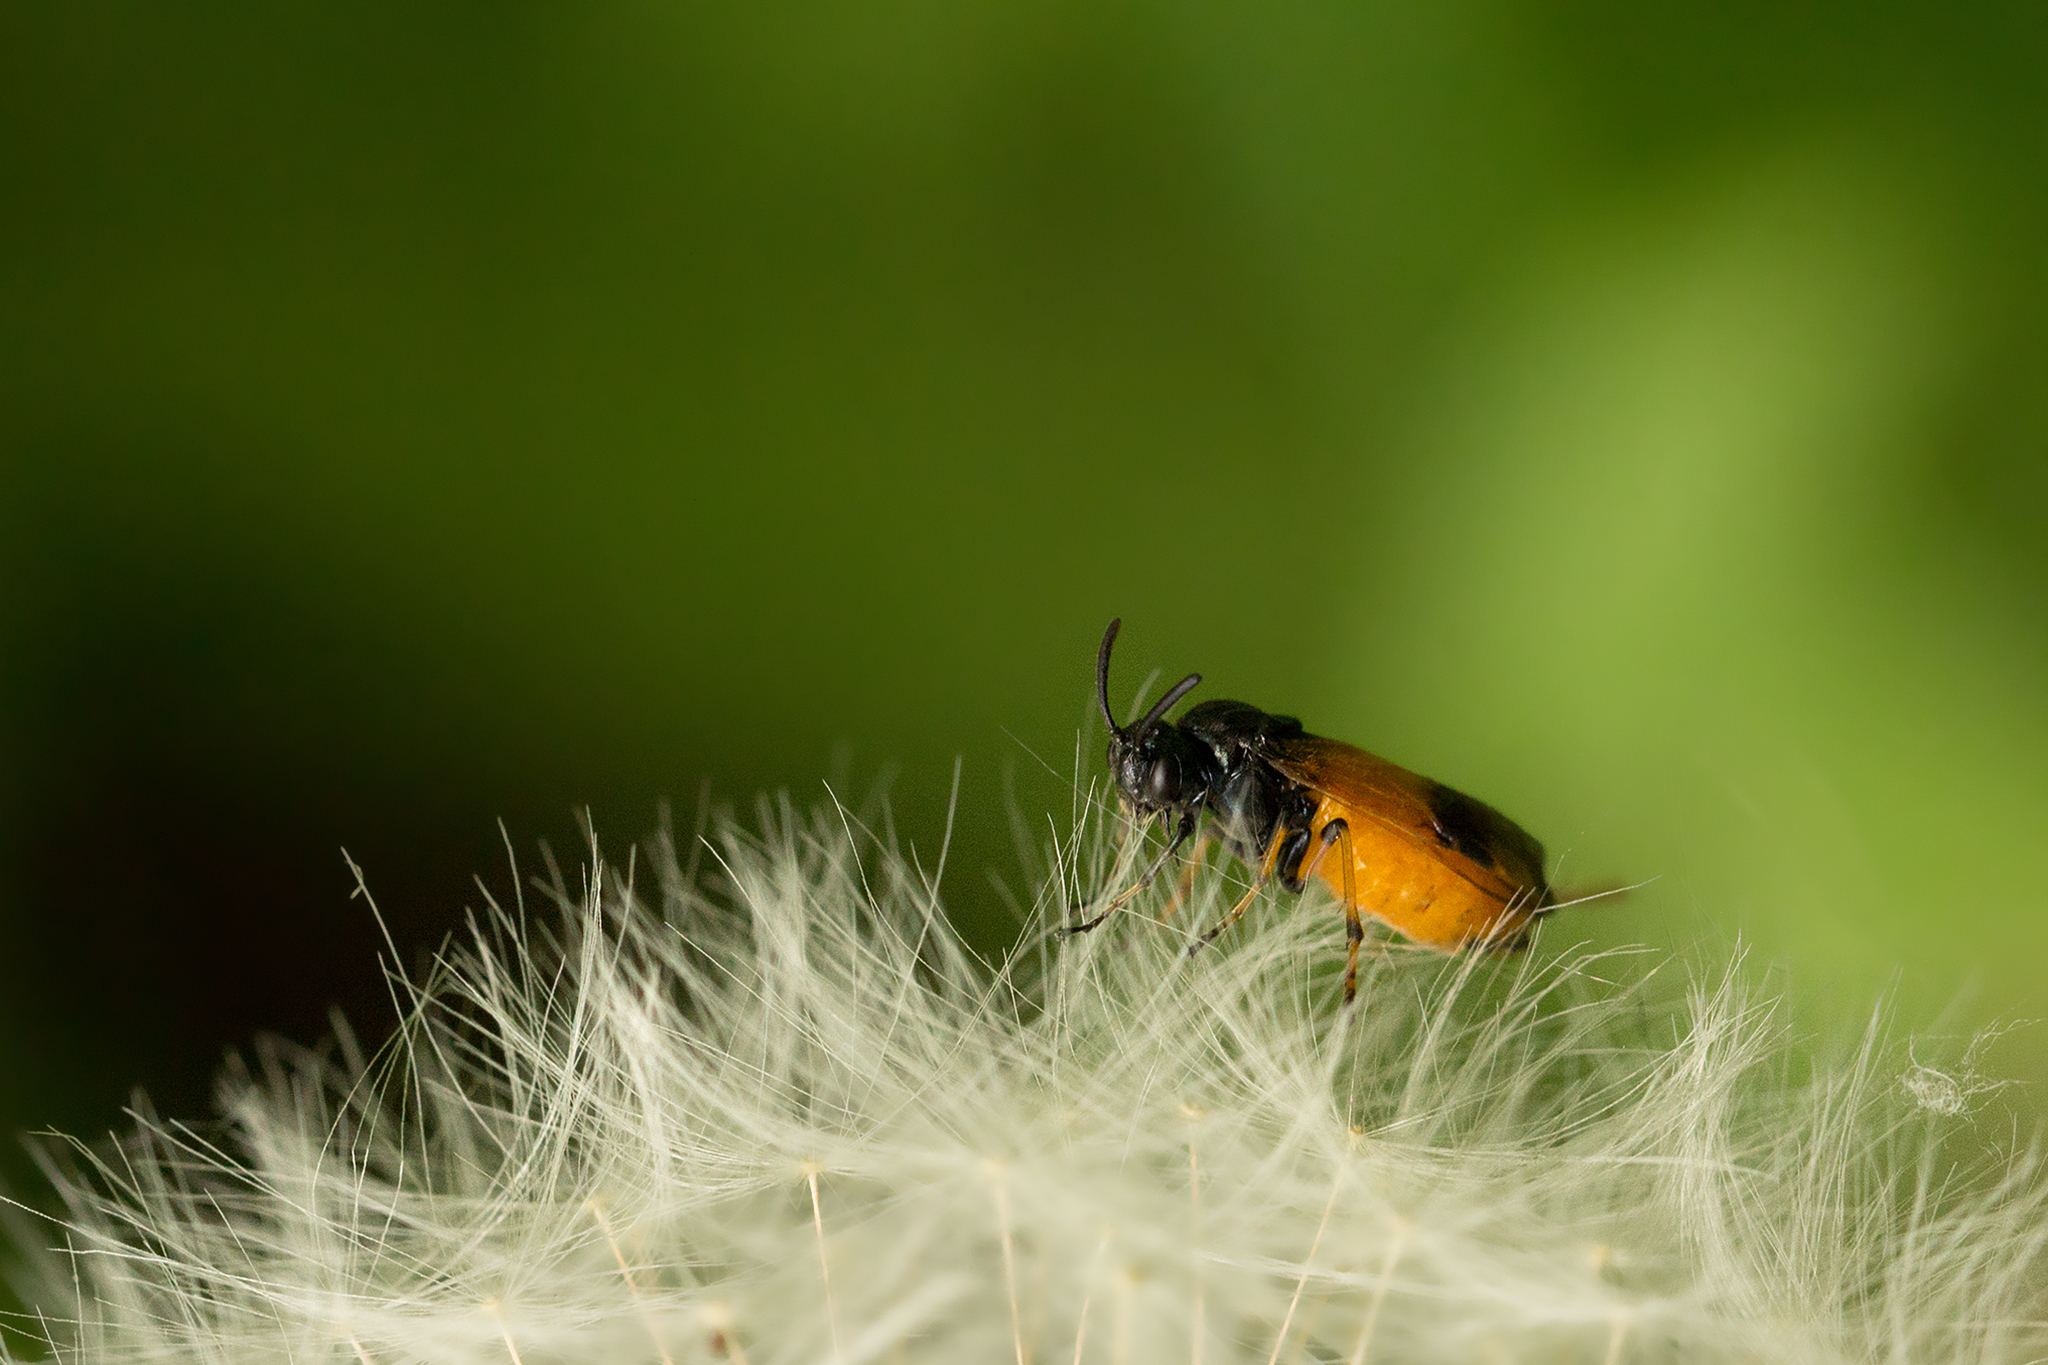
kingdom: Animalia
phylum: Arthropoda
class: Insecta
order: Hymenoptera
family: Argidae
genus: Arge
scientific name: Arge cyanocrocea
